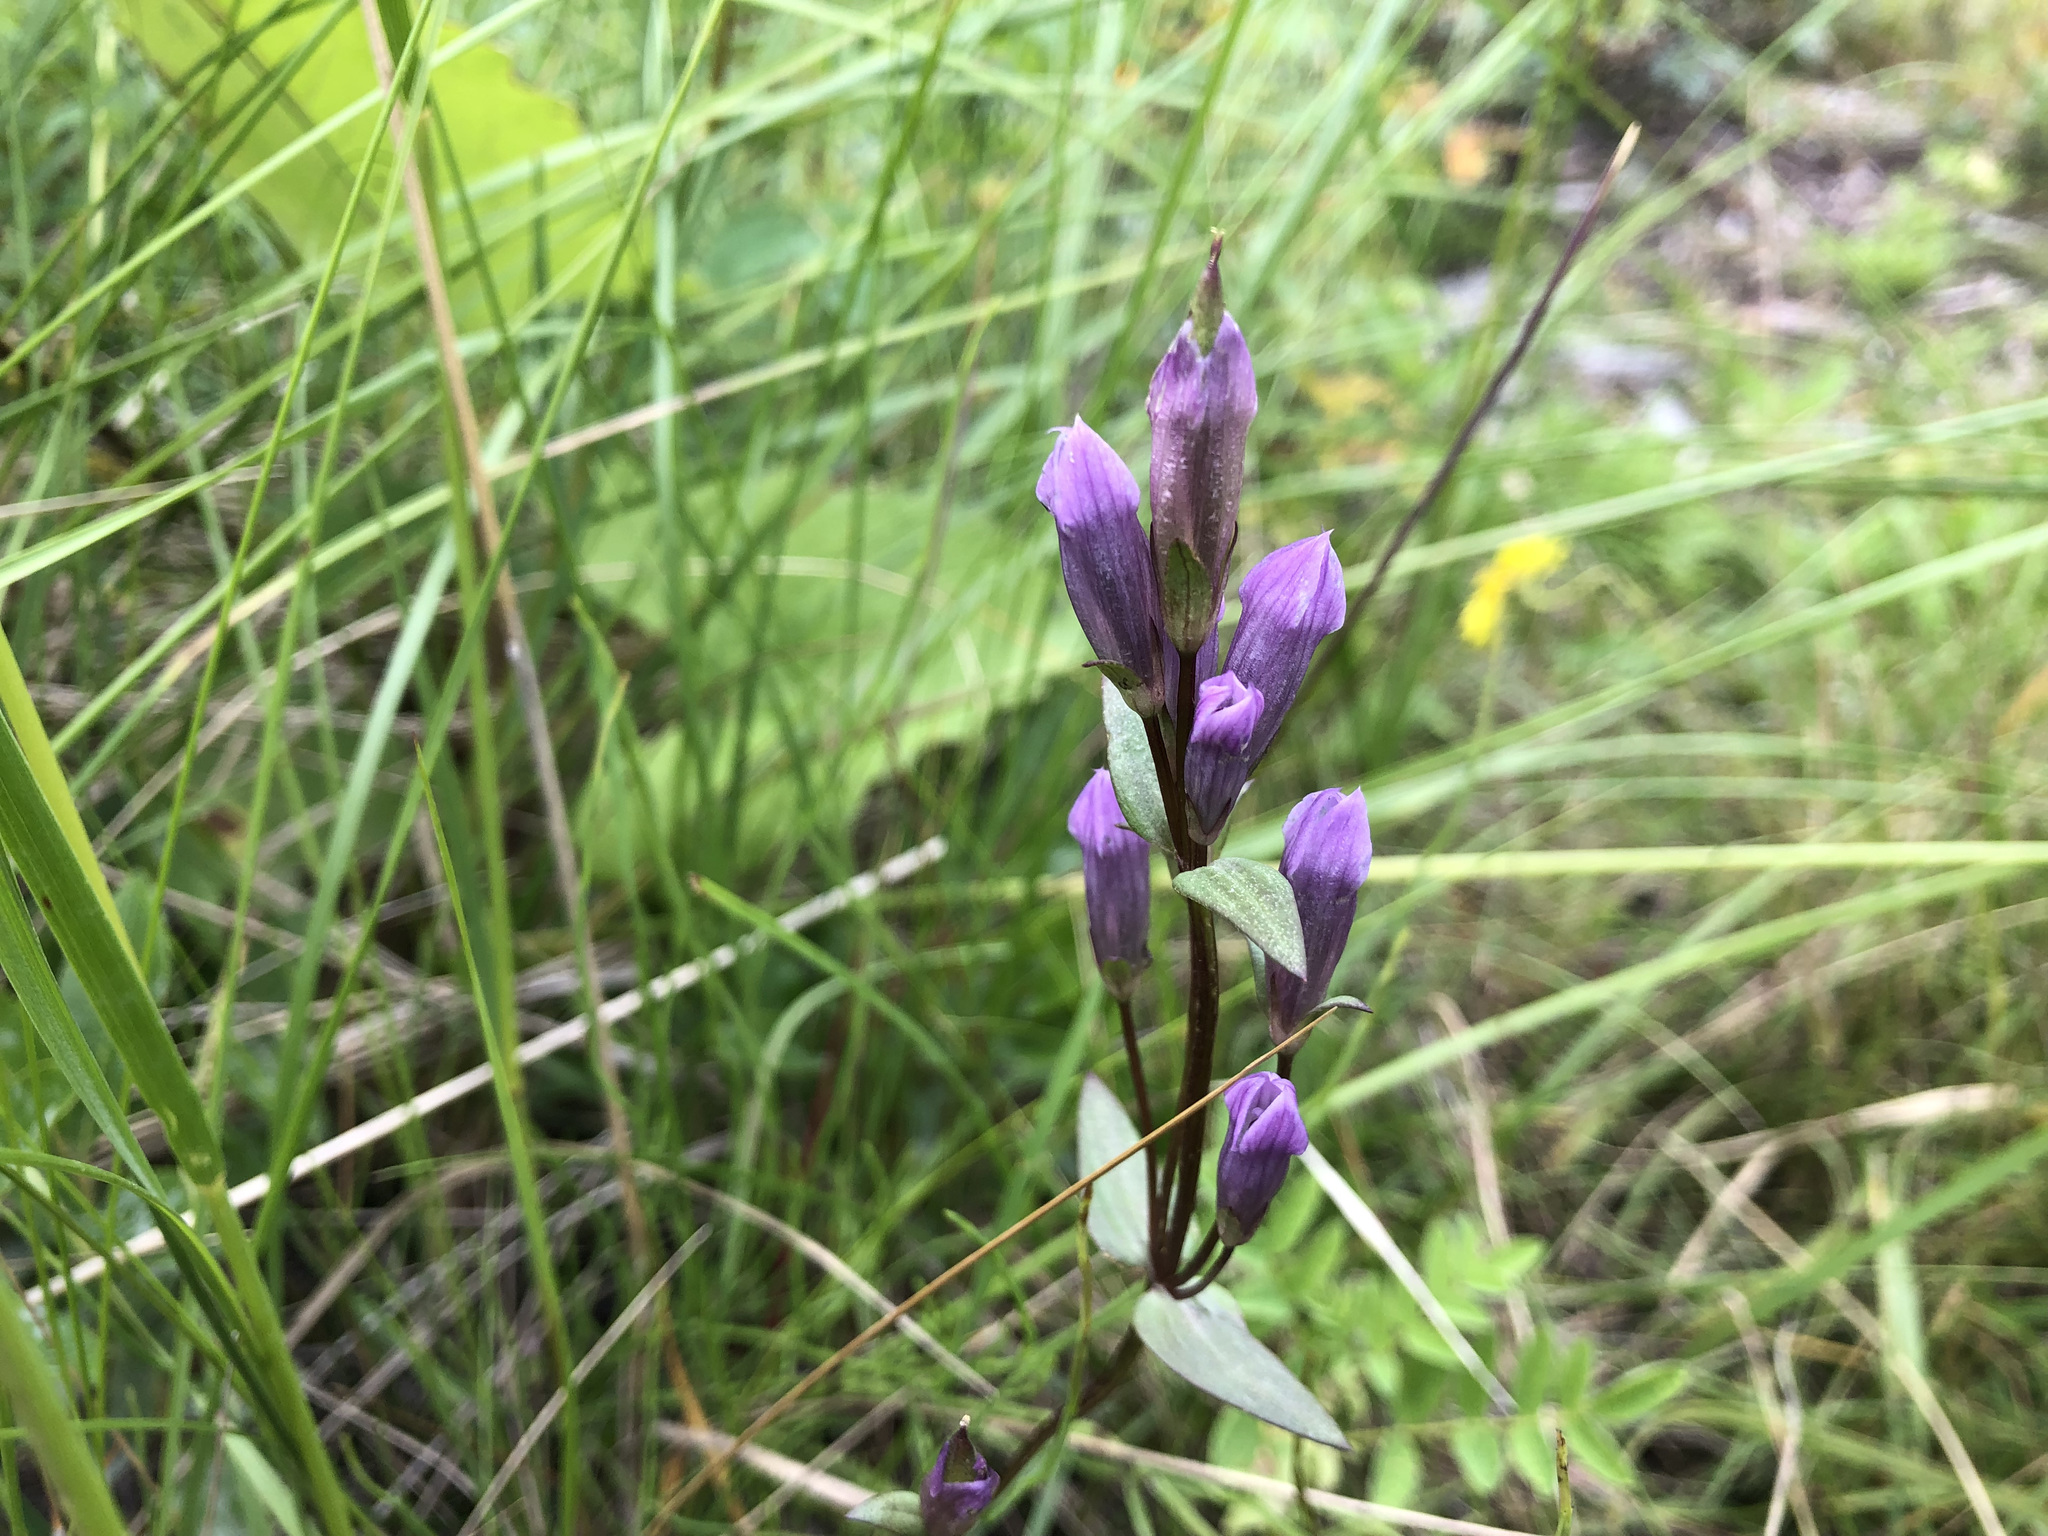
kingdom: Plantae
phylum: Tracheophyta
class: Magnoliopsida
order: Gentianales
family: Gentianaceae
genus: Gentianella
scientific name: Gentianella propinqua
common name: Four-parted dwarf-gentian
